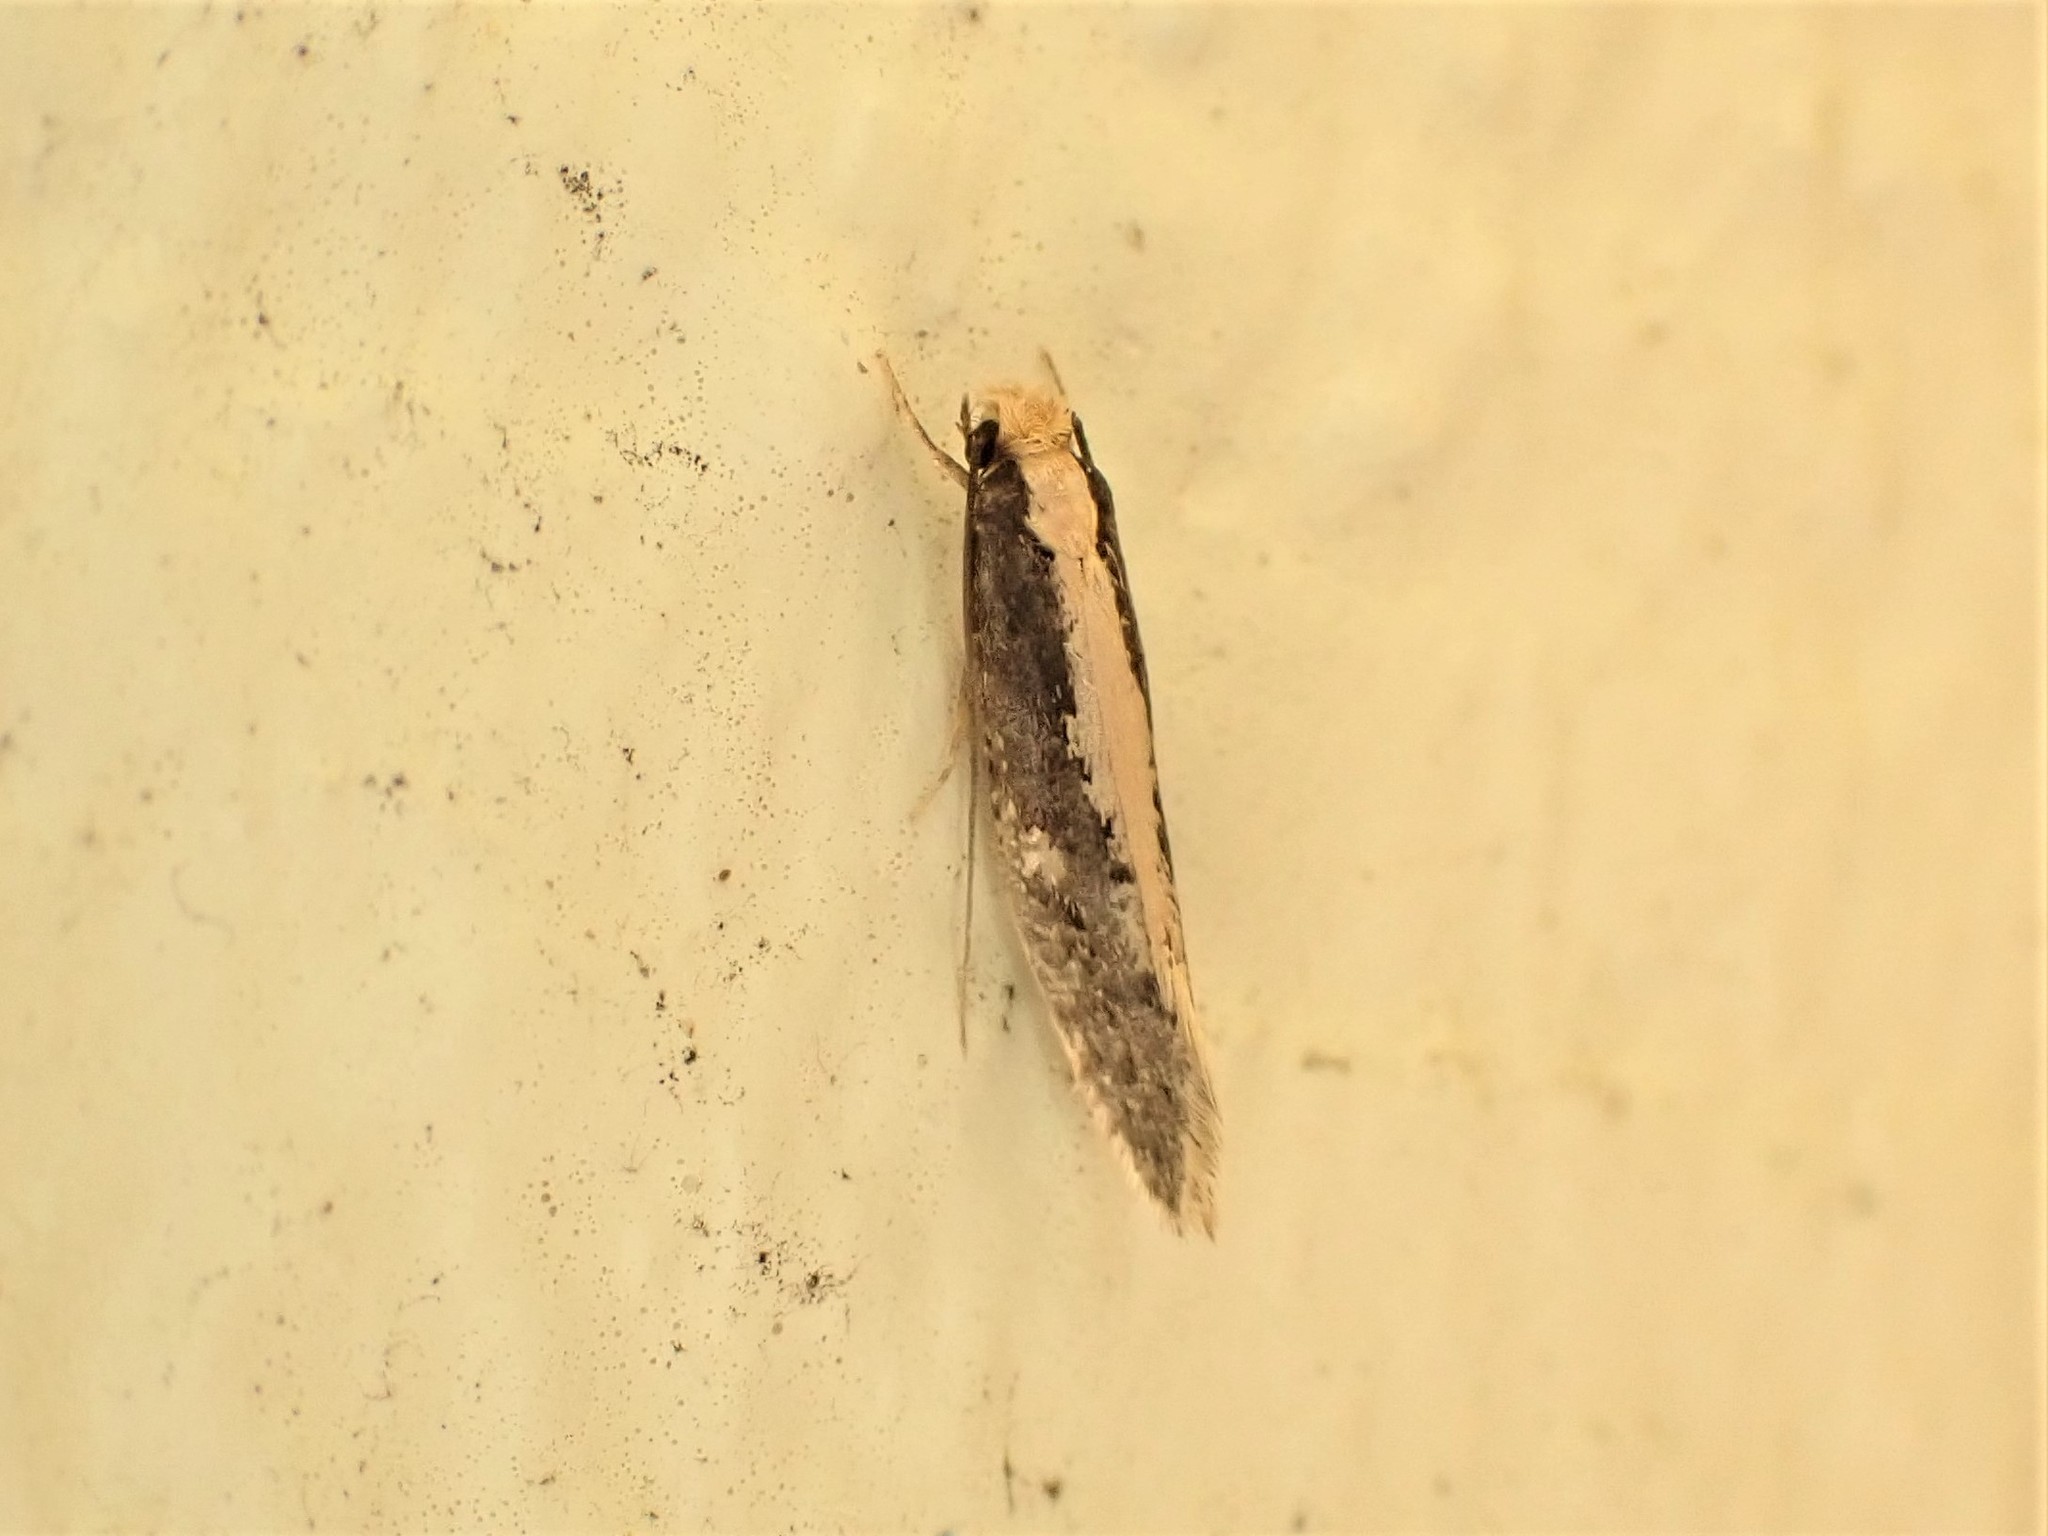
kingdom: Animalia
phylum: Arthropoda
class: Insecta
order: Lepidoptera
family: Tineidae
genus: Monopis
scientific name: Monopis crocicapitella
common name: Moth
